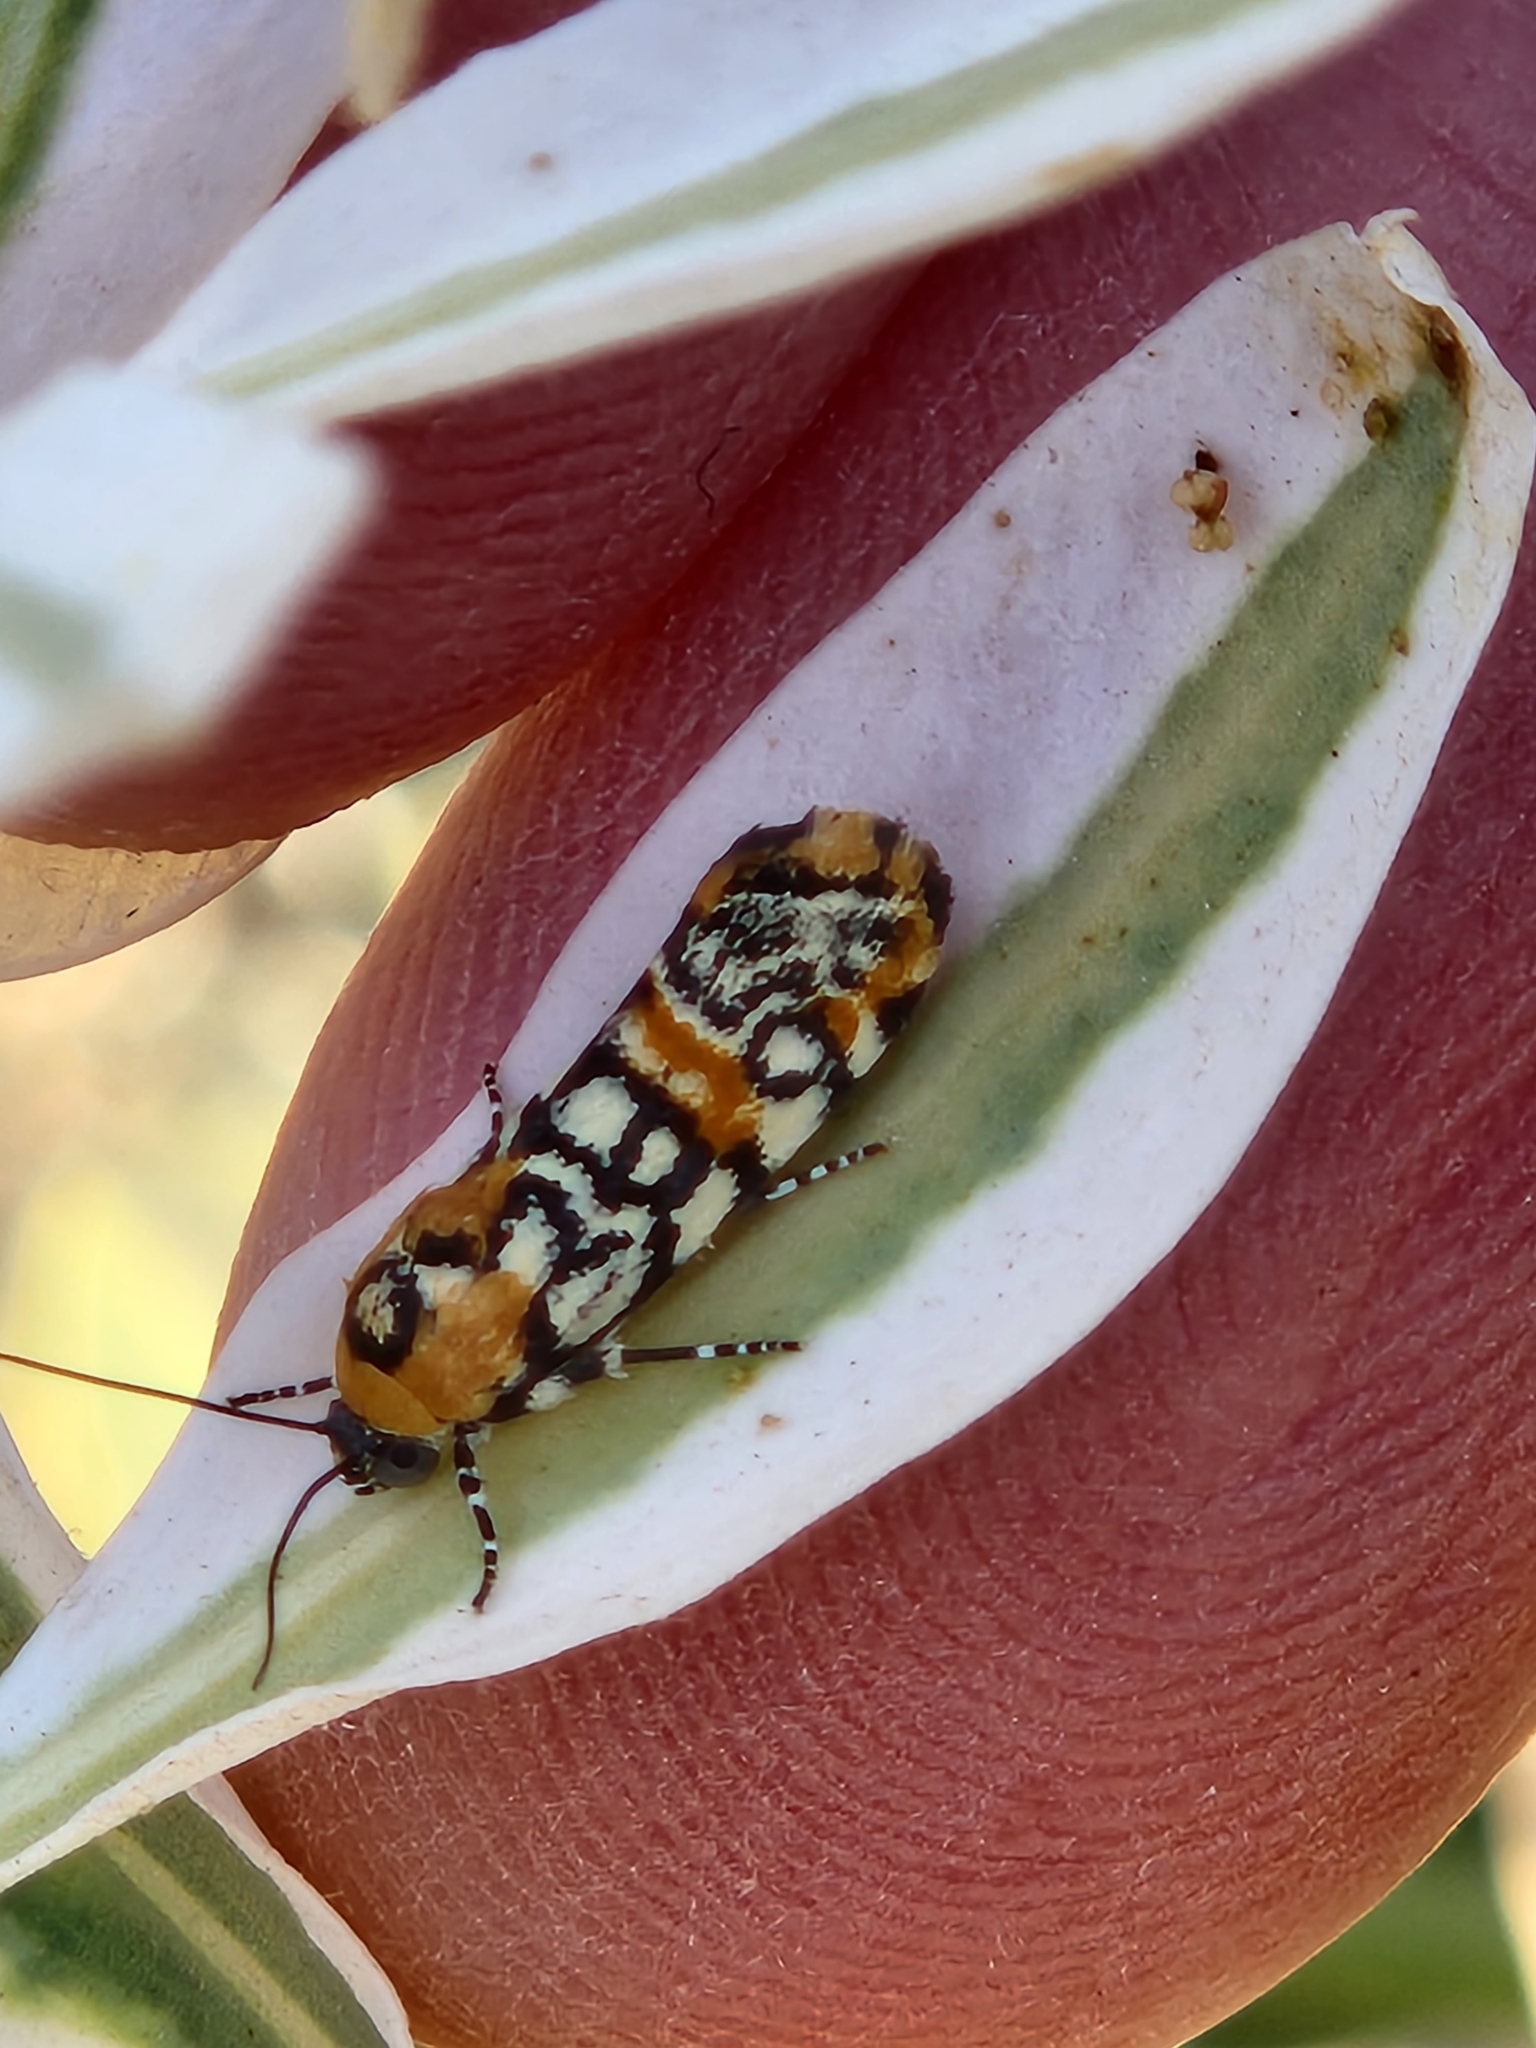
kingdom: Animalia
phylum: Arthropoda
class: Insecta
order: Lepidoptera
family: Noctuidae
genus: Spragueia
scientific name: Spragueia guttata
